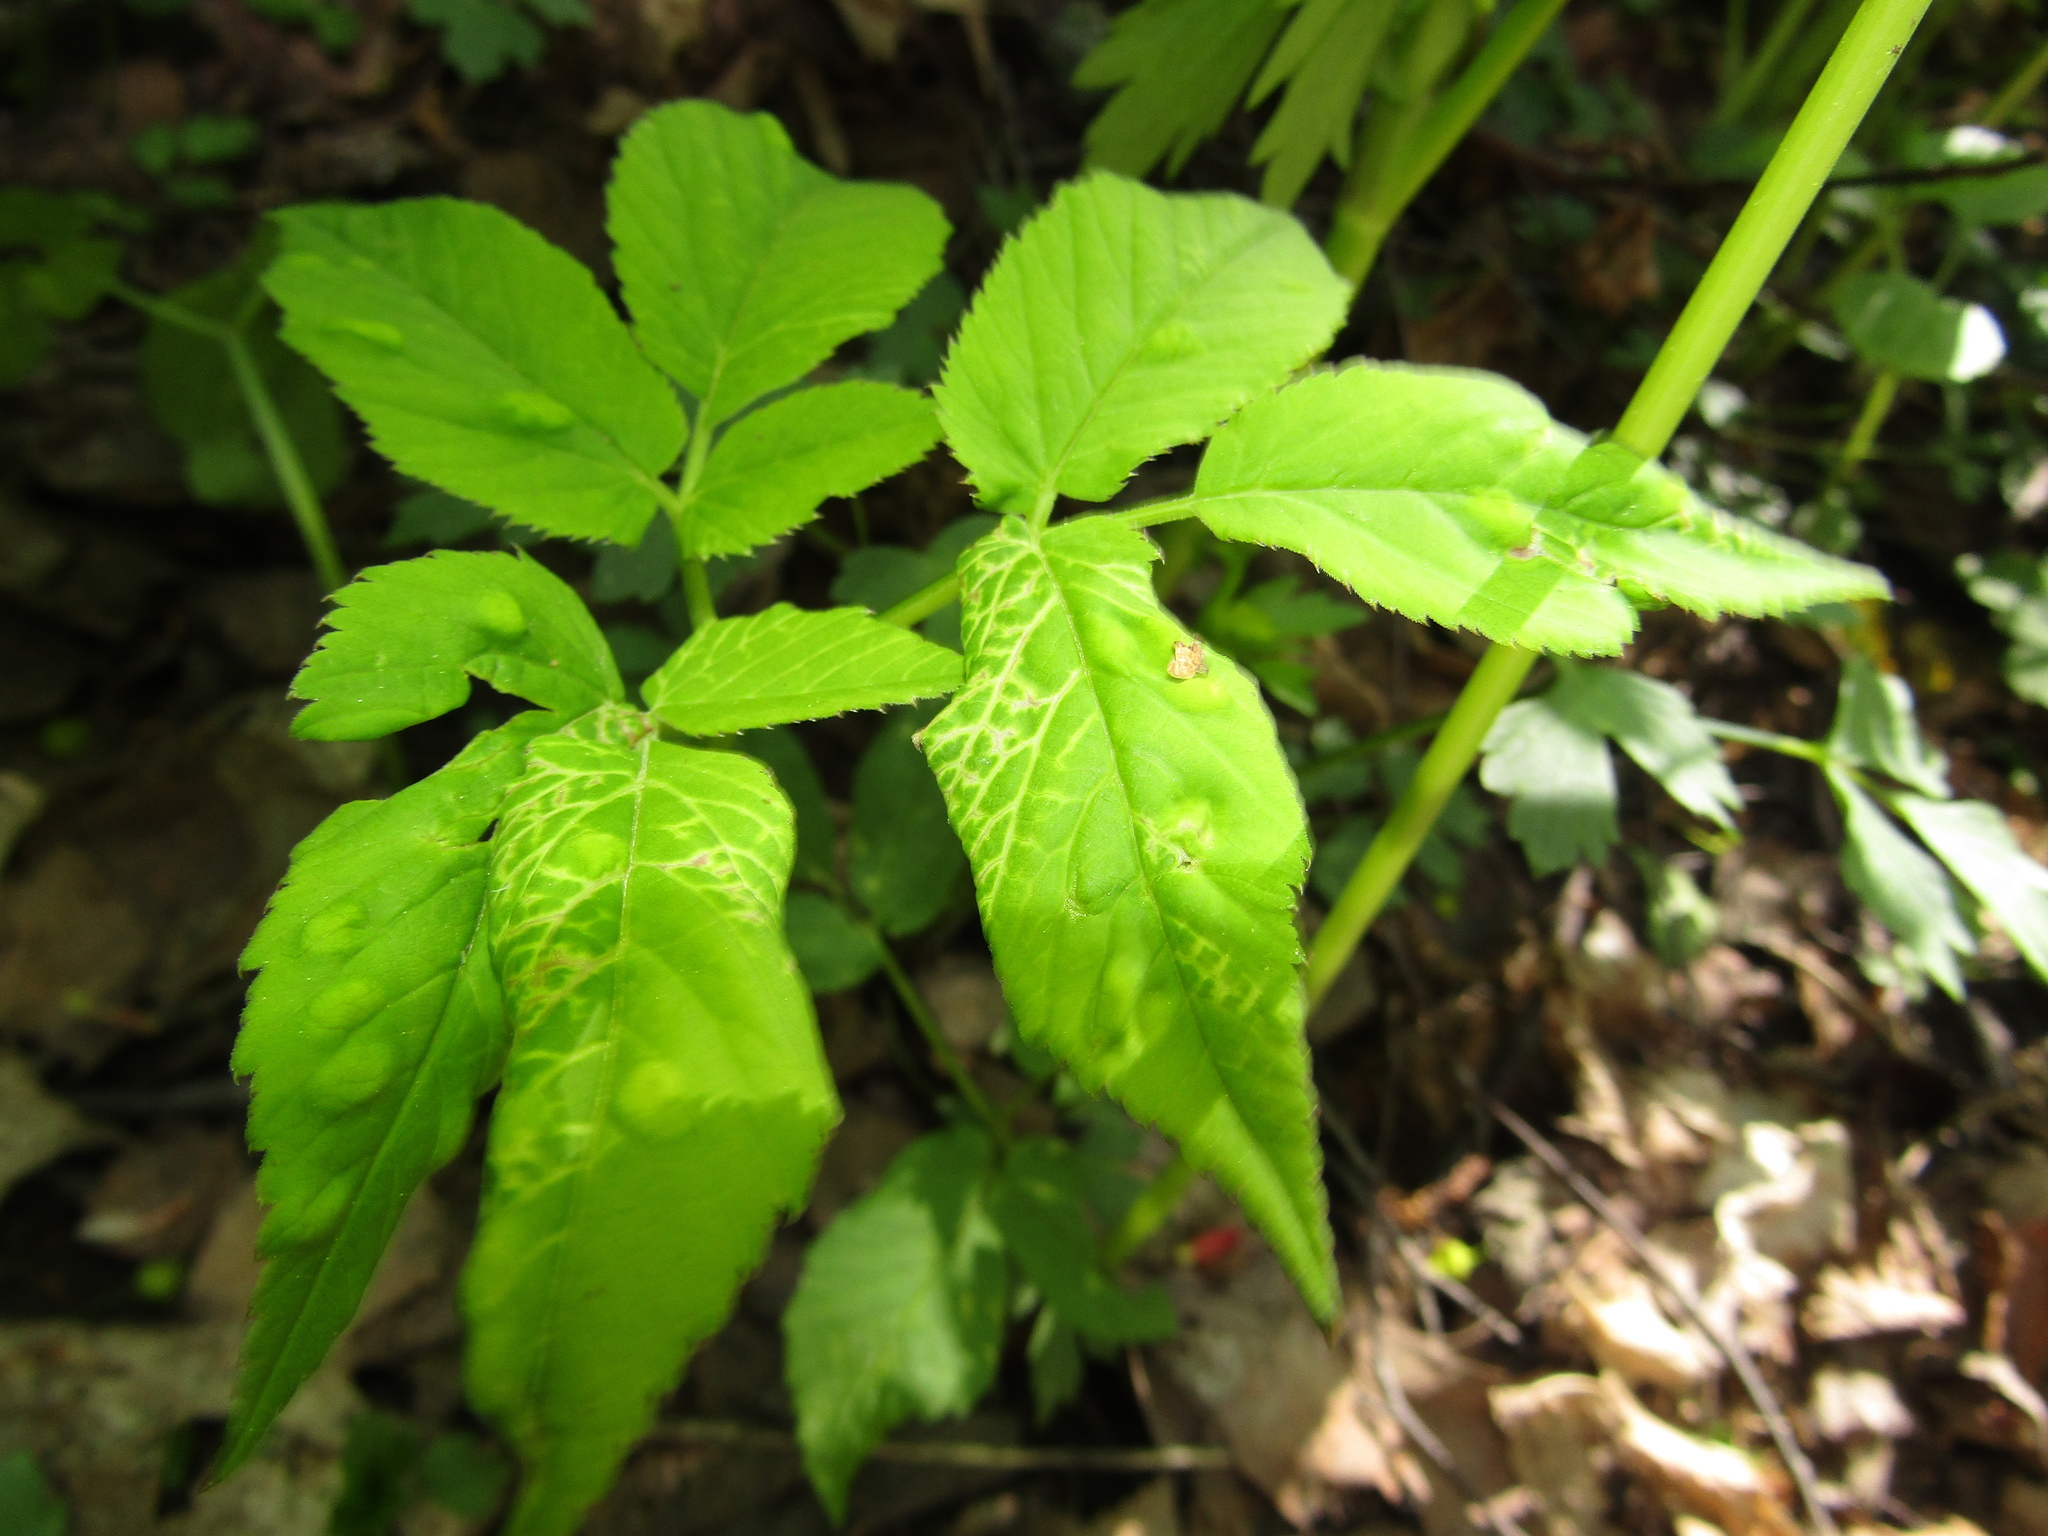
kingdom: Plantae
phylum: Tracheophyta
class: Magnoliopsida
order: Apiales
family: Apiaceae
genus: Aegopodium
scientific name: Aegopodium podagraria
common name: Ground-elder
